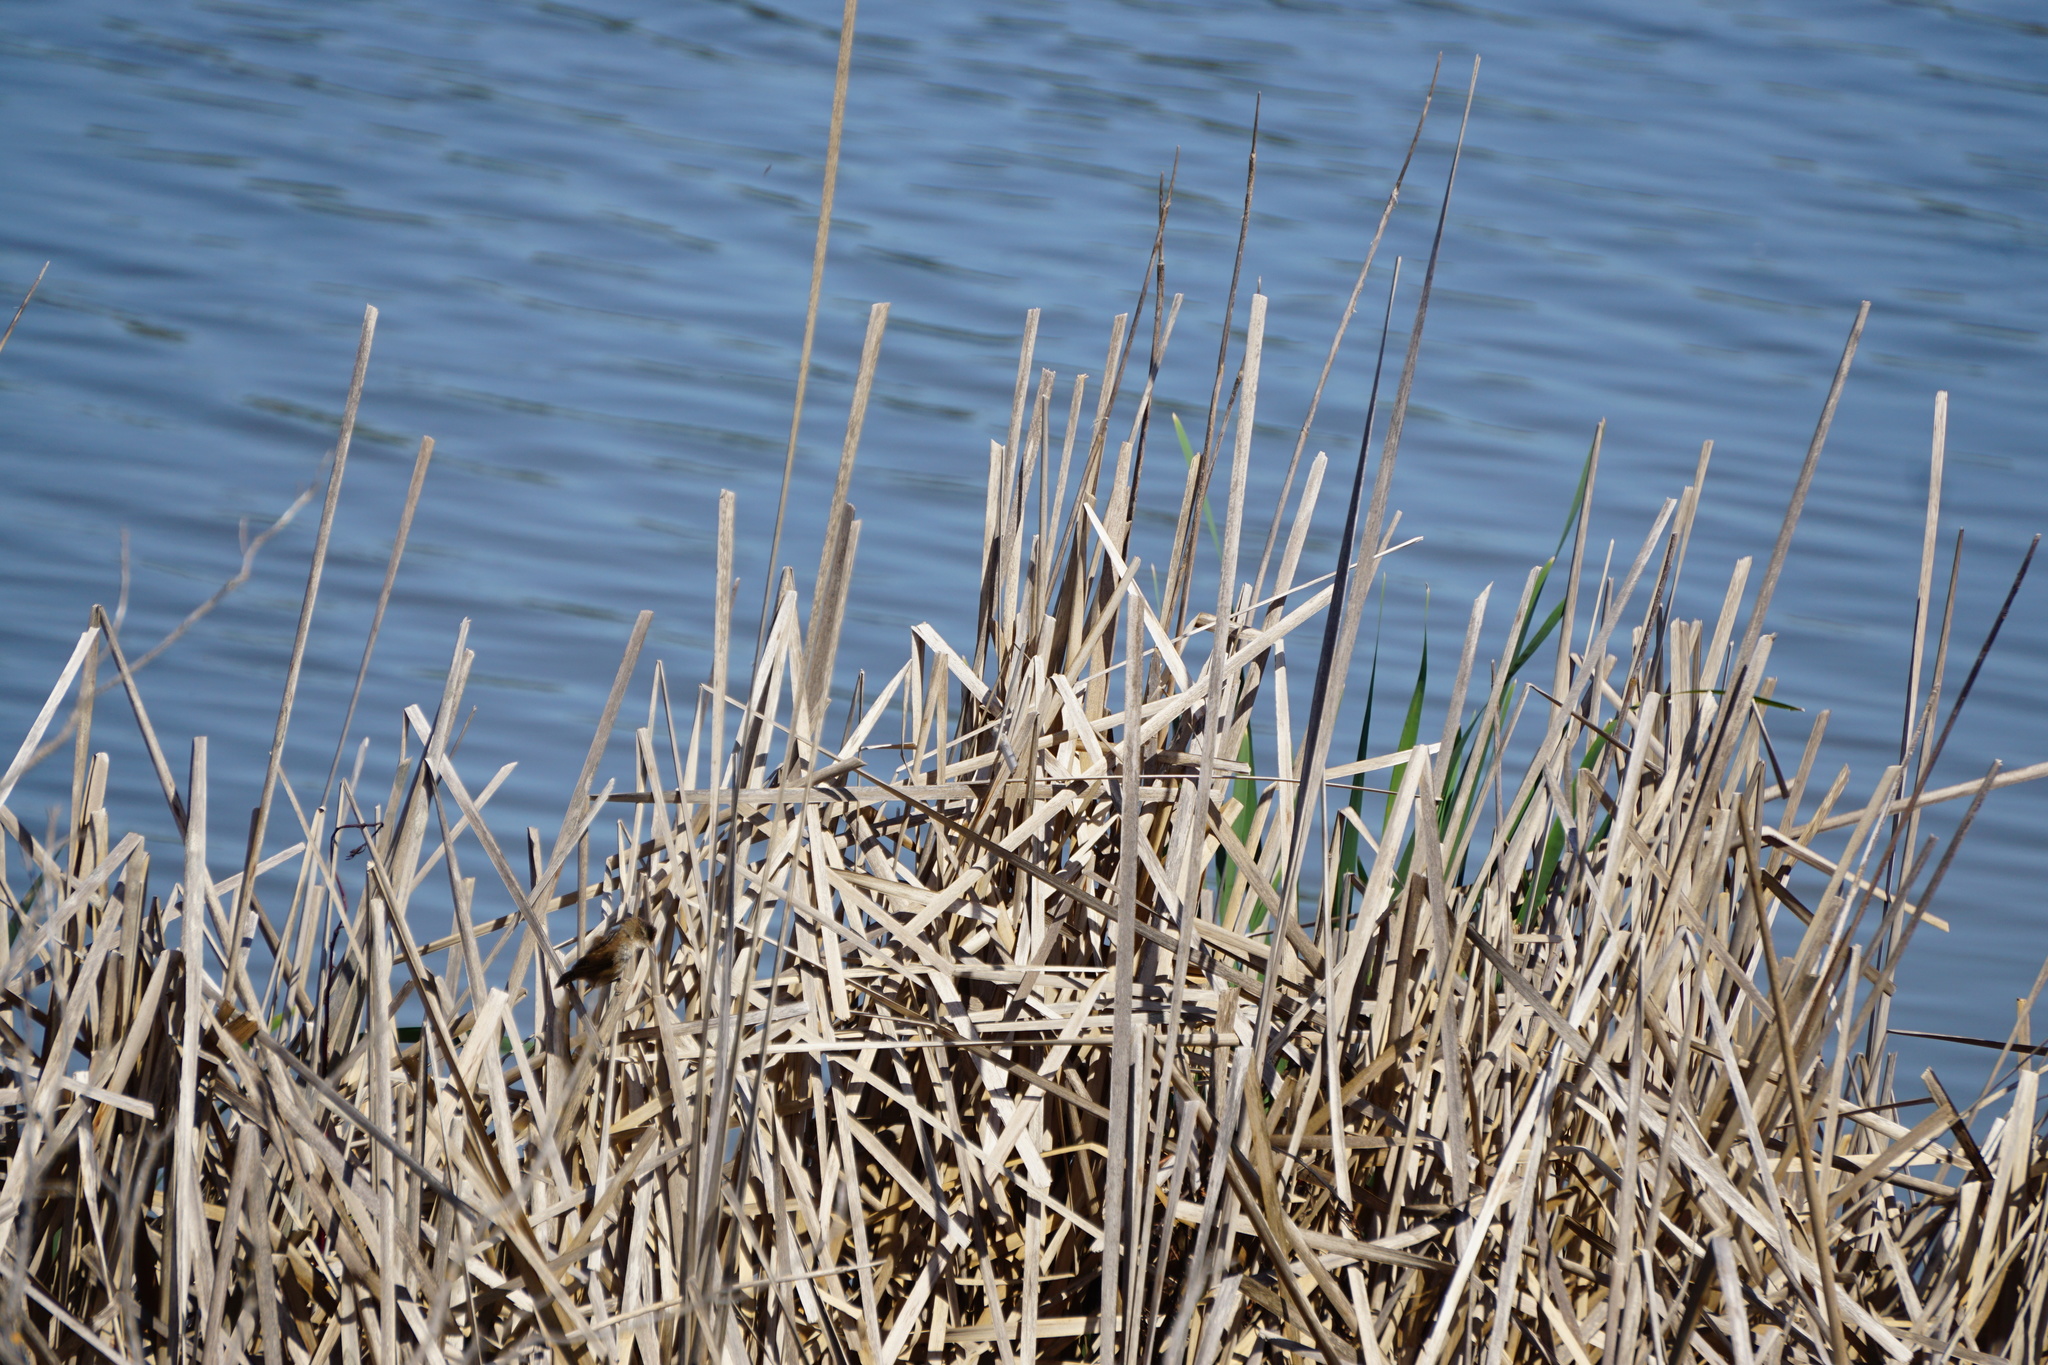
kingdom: Animalia
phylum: Chordata
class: Aves
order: Passeriformes
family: Troglodytidae
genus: Cistothorus
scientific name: Cistothorus palustris
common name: Marsh wren
